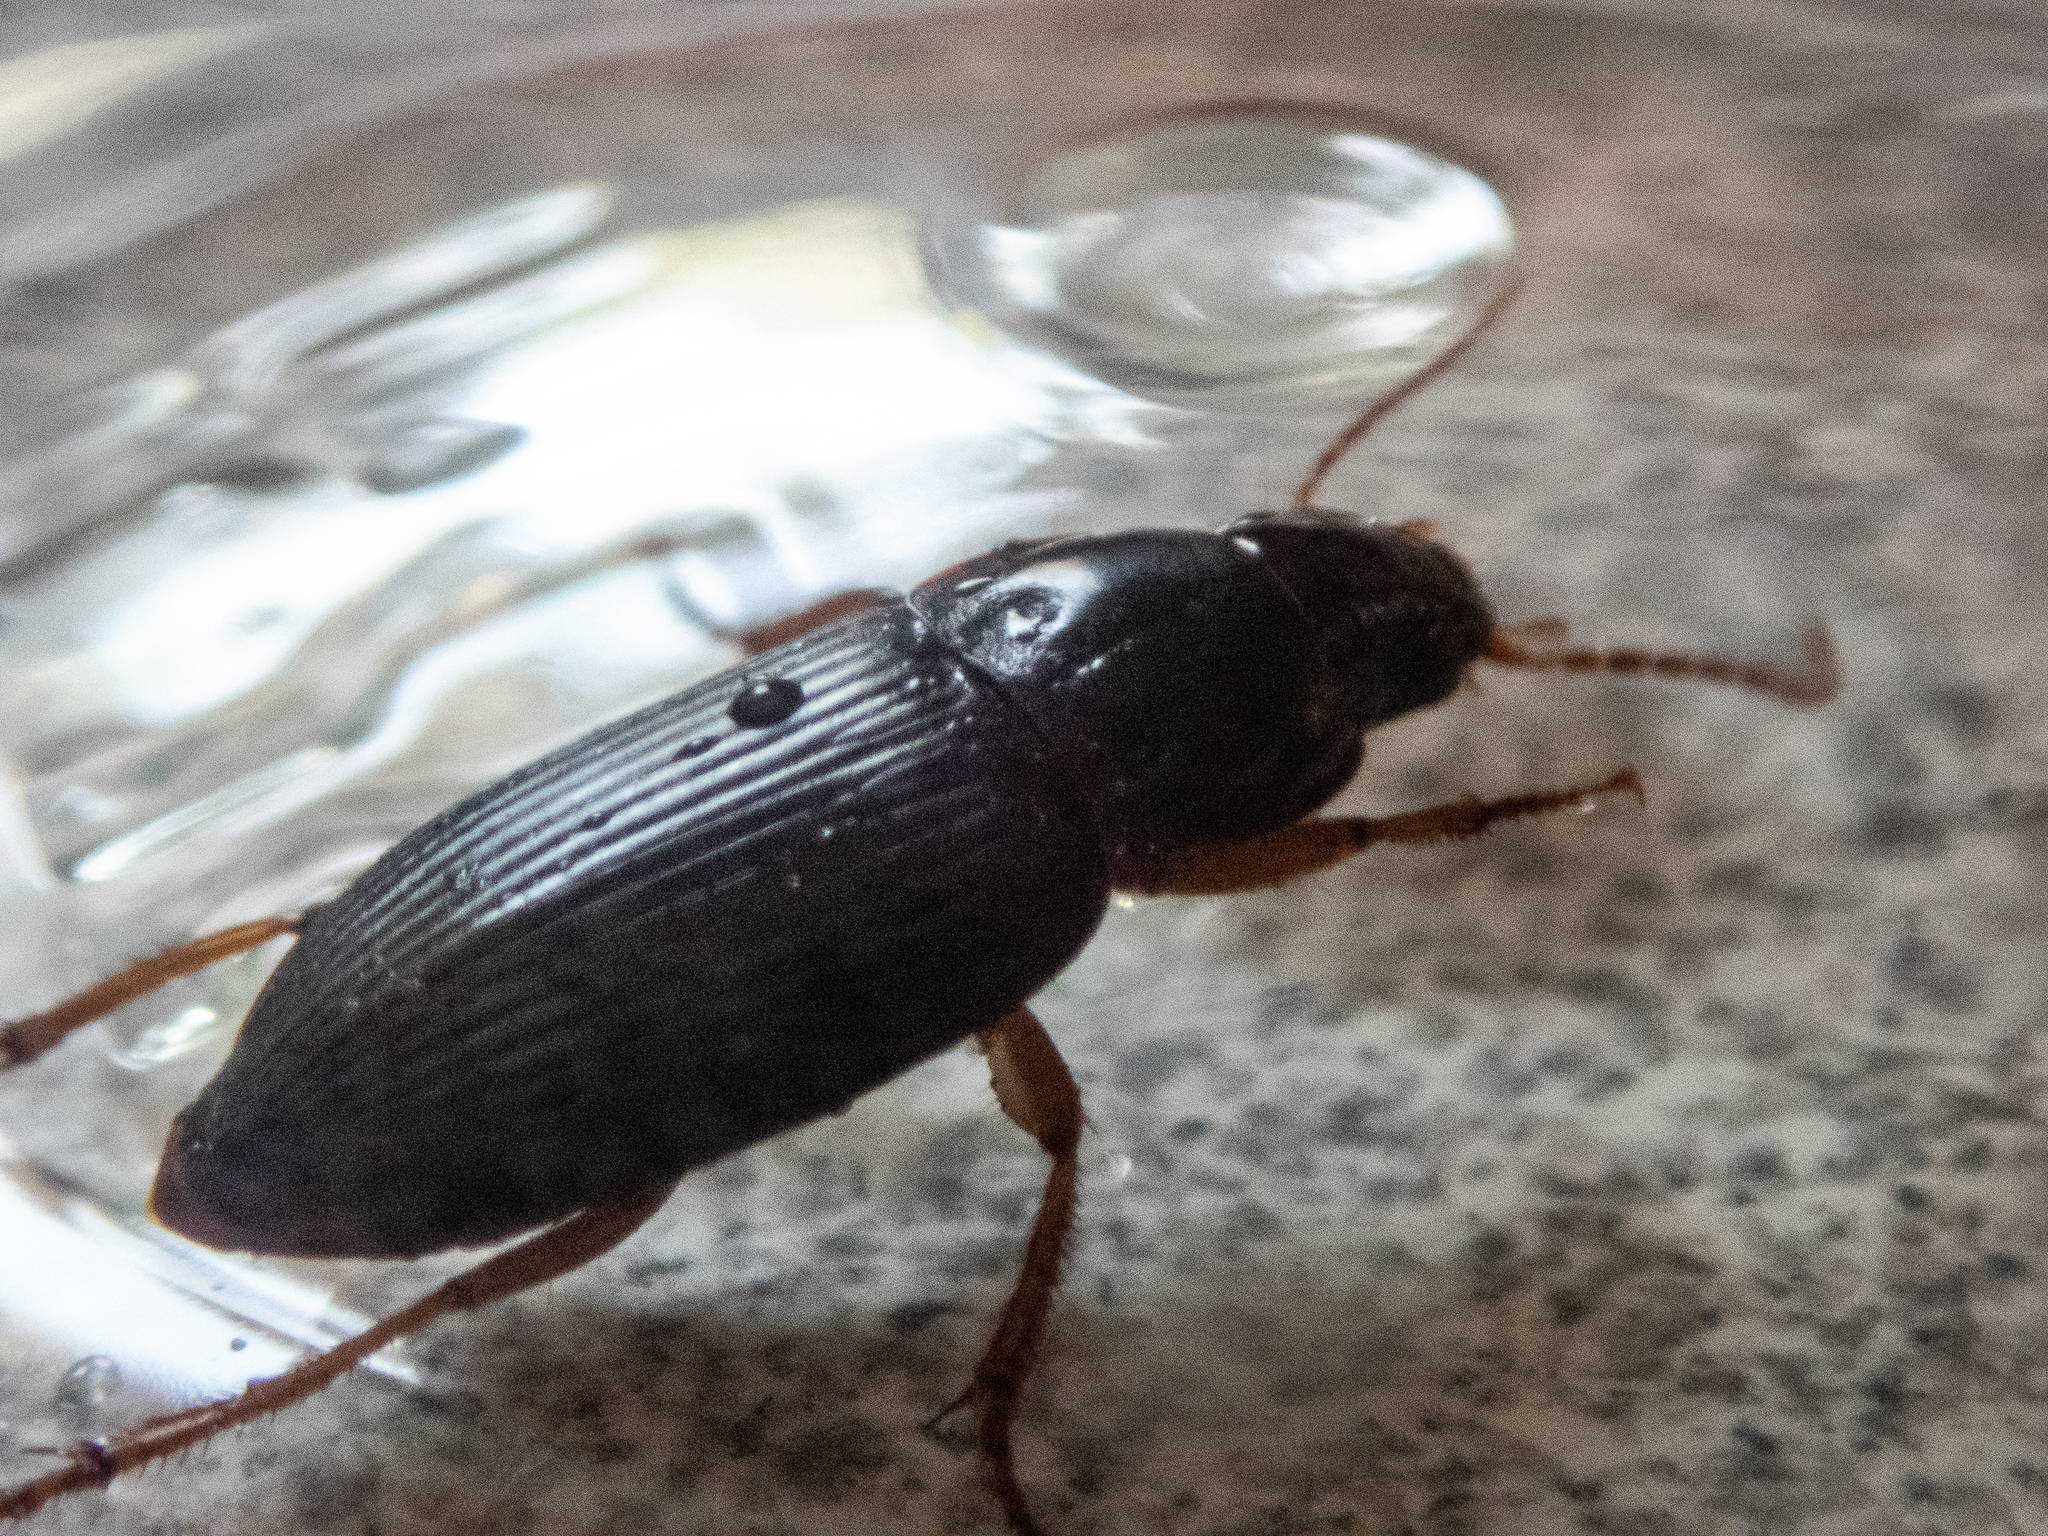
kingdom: Animalia
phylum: Arthropoda
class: Insecta
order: Coleoptera
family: Carabidae
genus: Harpalus
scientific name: Harpalus pensylvanicus
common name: Pennsylvania dingy ground beetle
